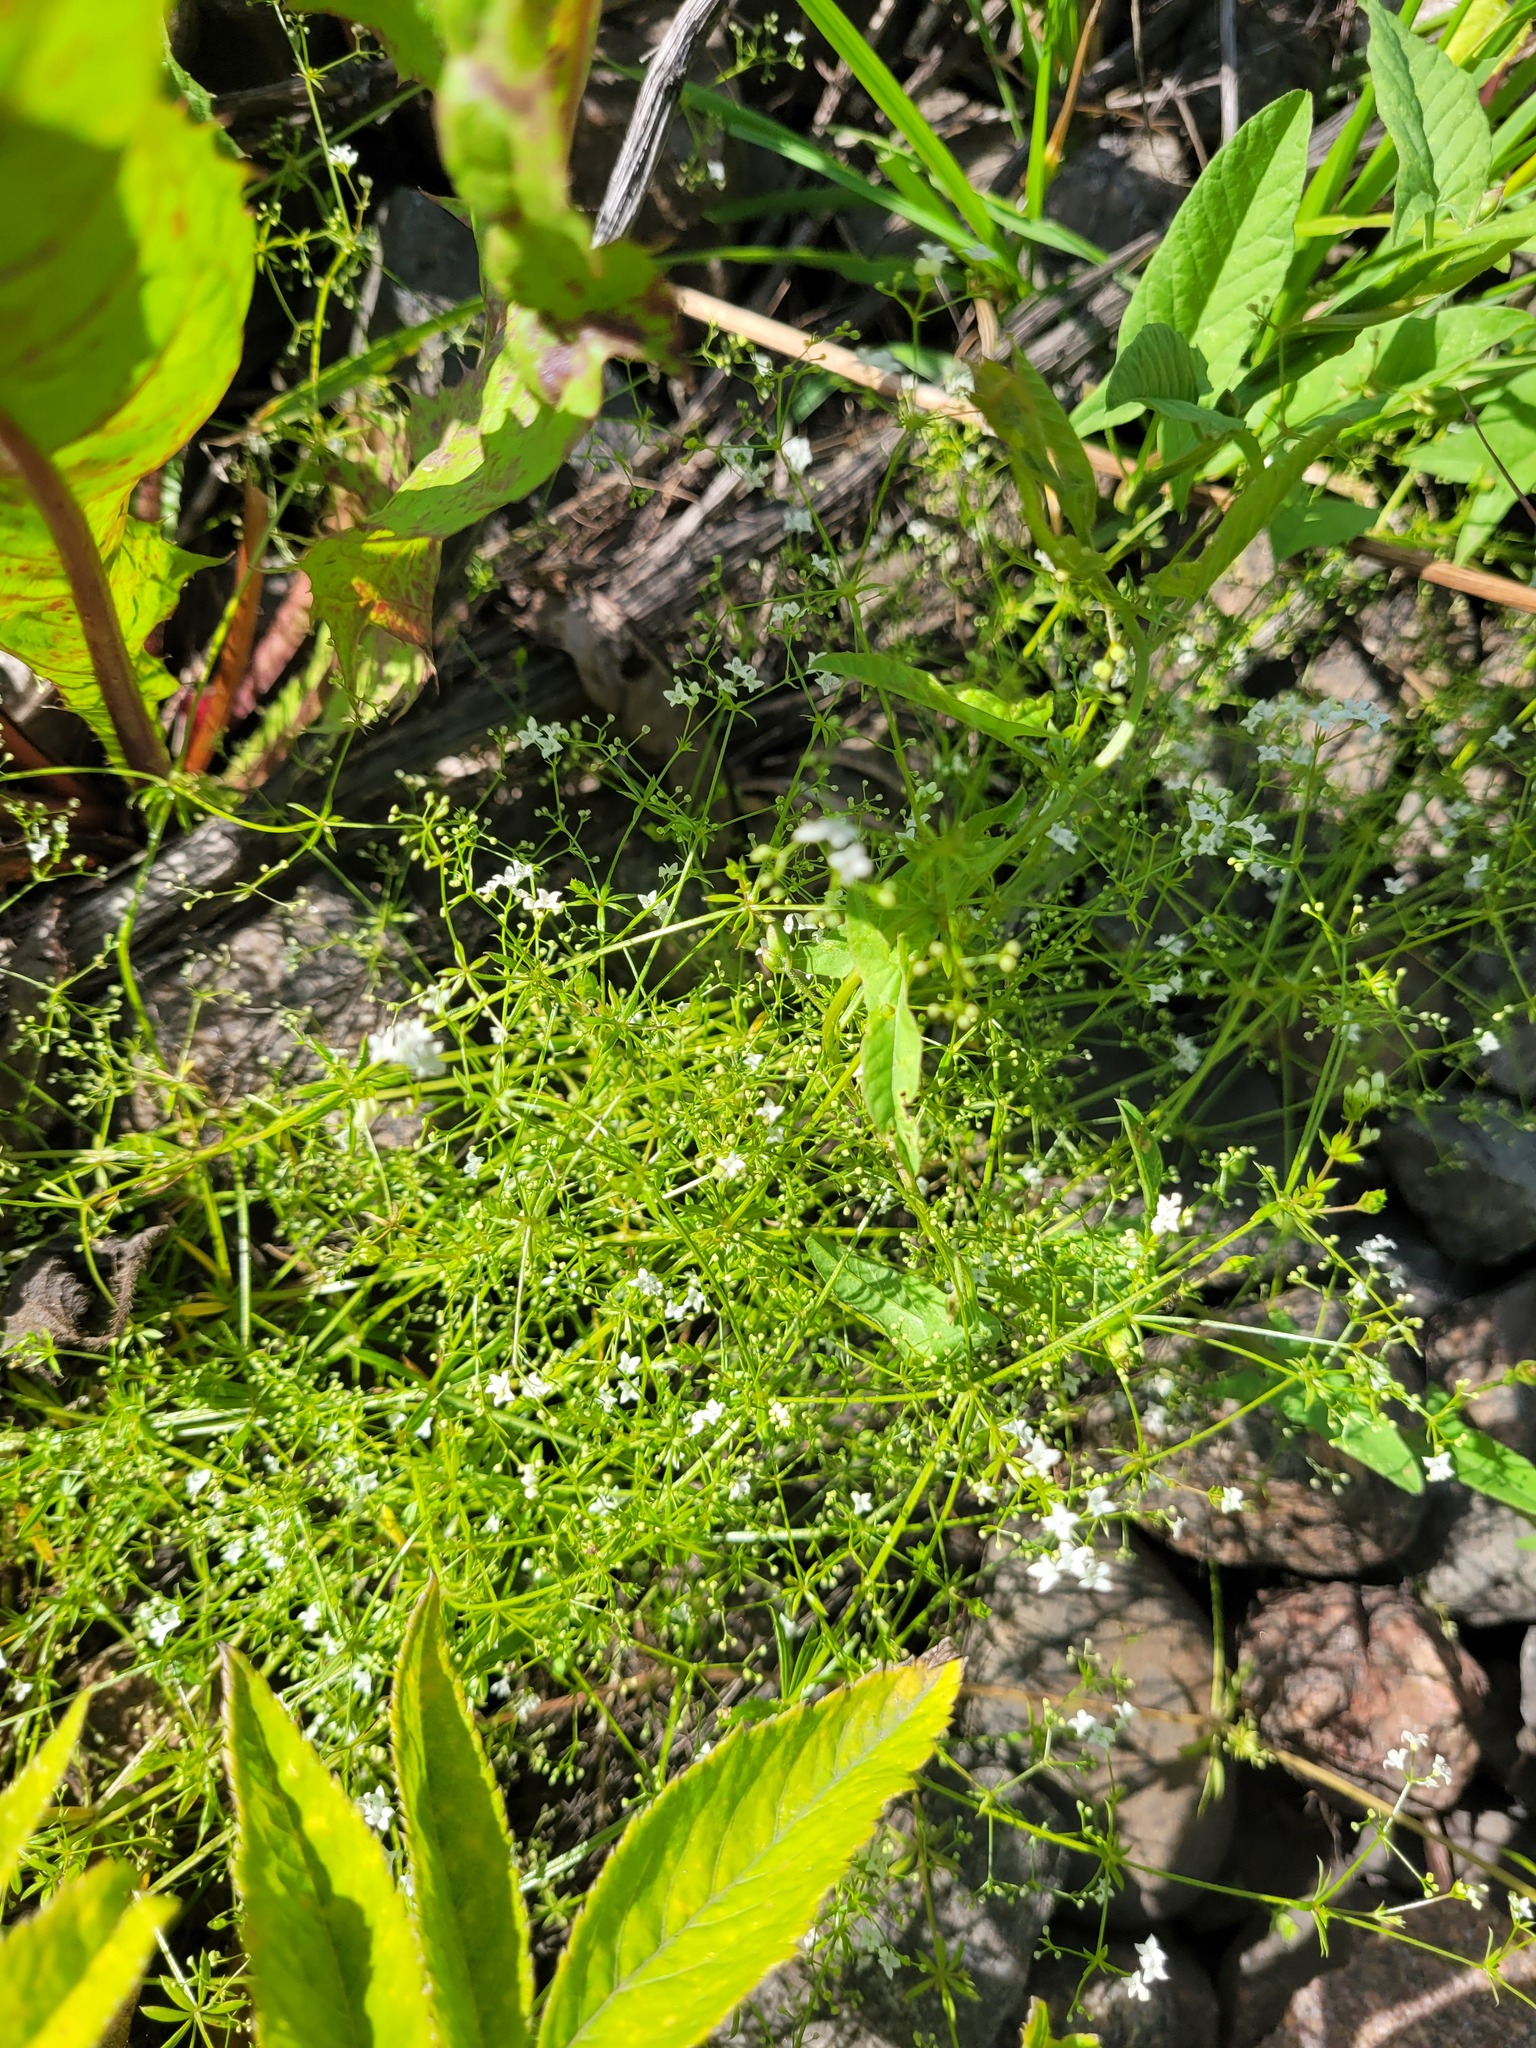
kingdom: Plantae
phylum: Tracheophyta
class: Magnoliopsida
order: Gentianales
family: Rubiaceae
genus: Galium
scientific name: Galium uliginosum
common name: Fen bedstraw
